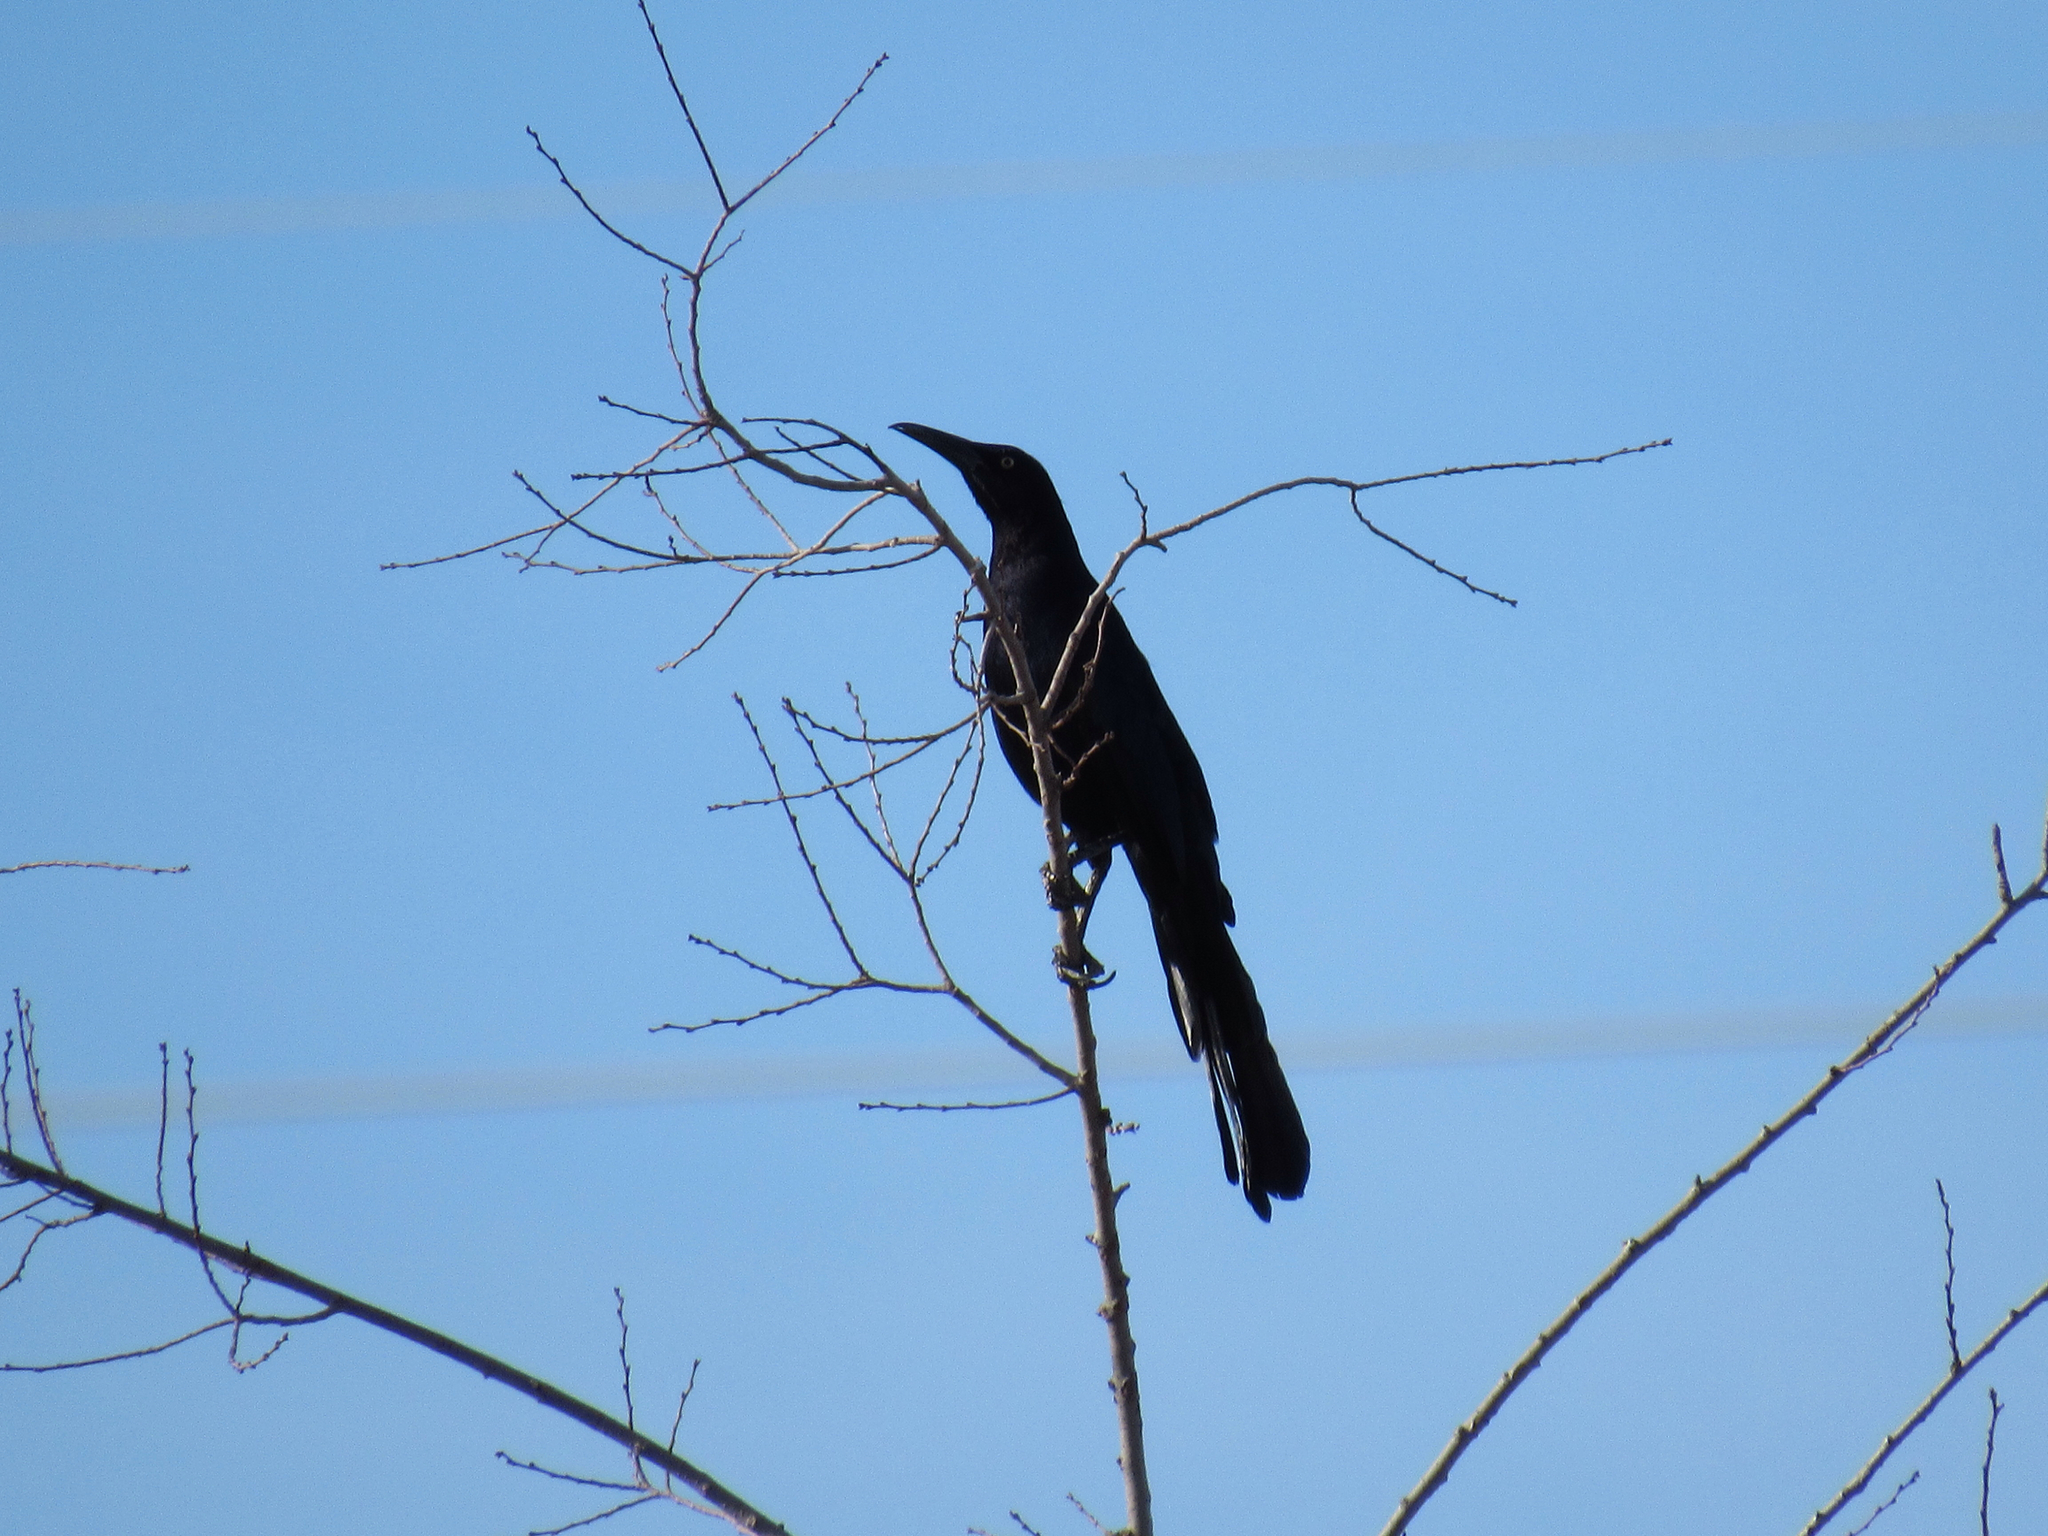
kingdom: Animalia
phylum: Chordata
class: Aves
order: Passeriformes
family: Icteridae
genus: Quiscalus
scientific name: Quiscalus mexicanus
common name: Great-tailed grackle
